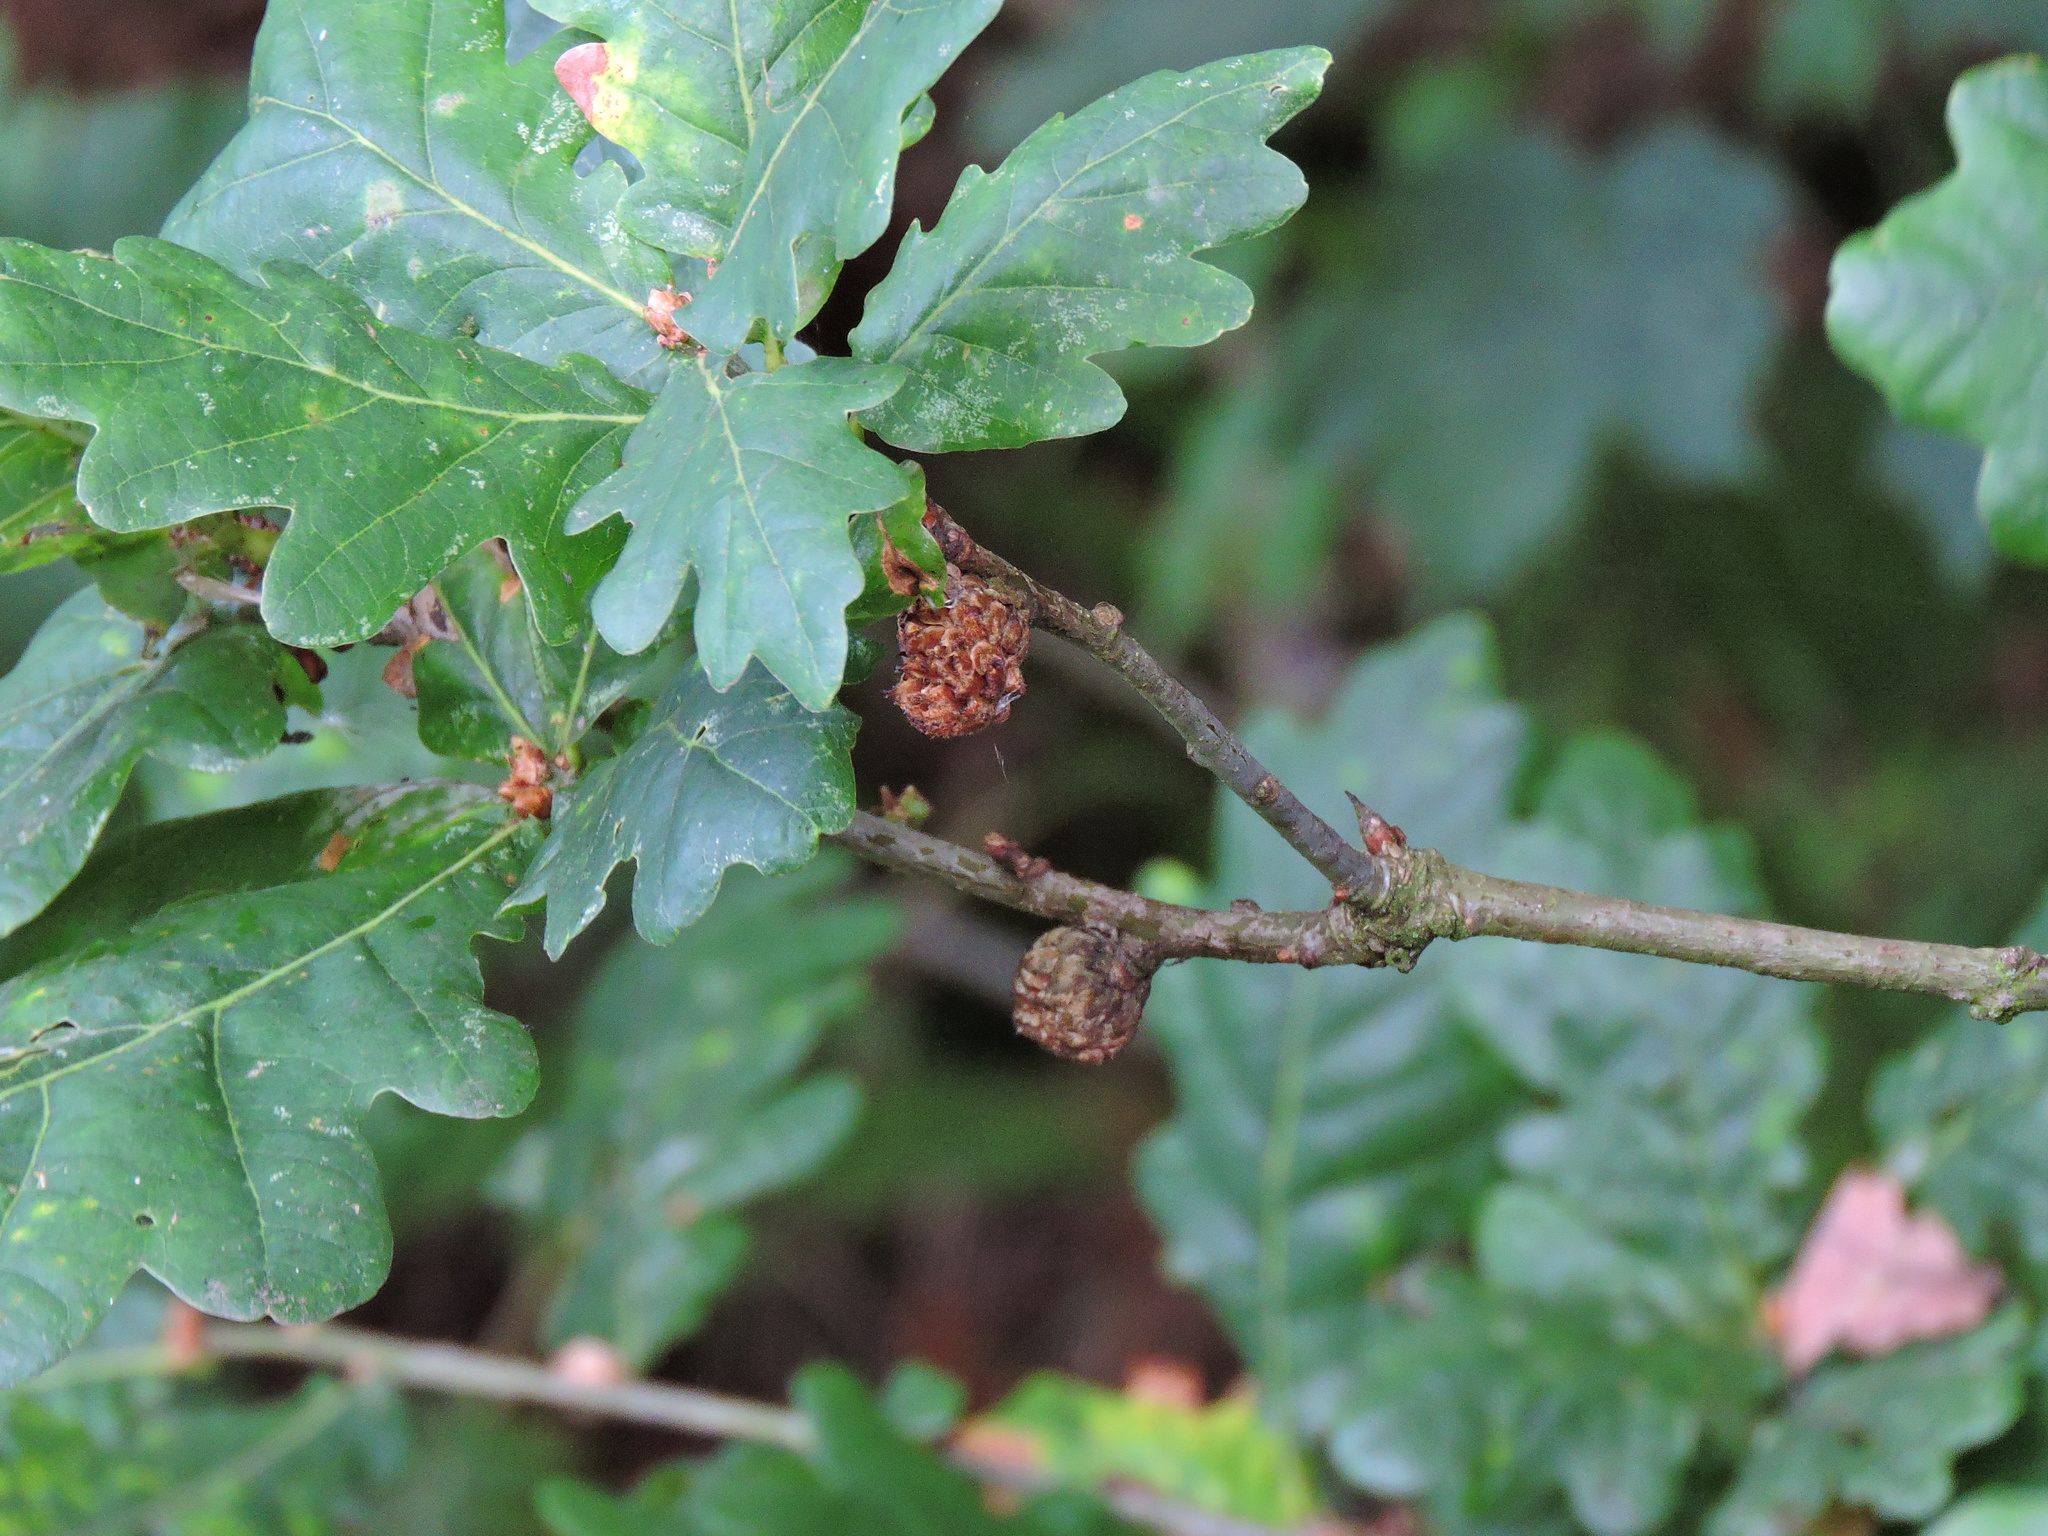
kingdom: Animalia
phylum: Arthropoda
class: Insecta
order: Hymenoptera
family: Cynipidae
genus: Andricus
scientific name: Andricus foecundatrix
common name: Artichoke gall
